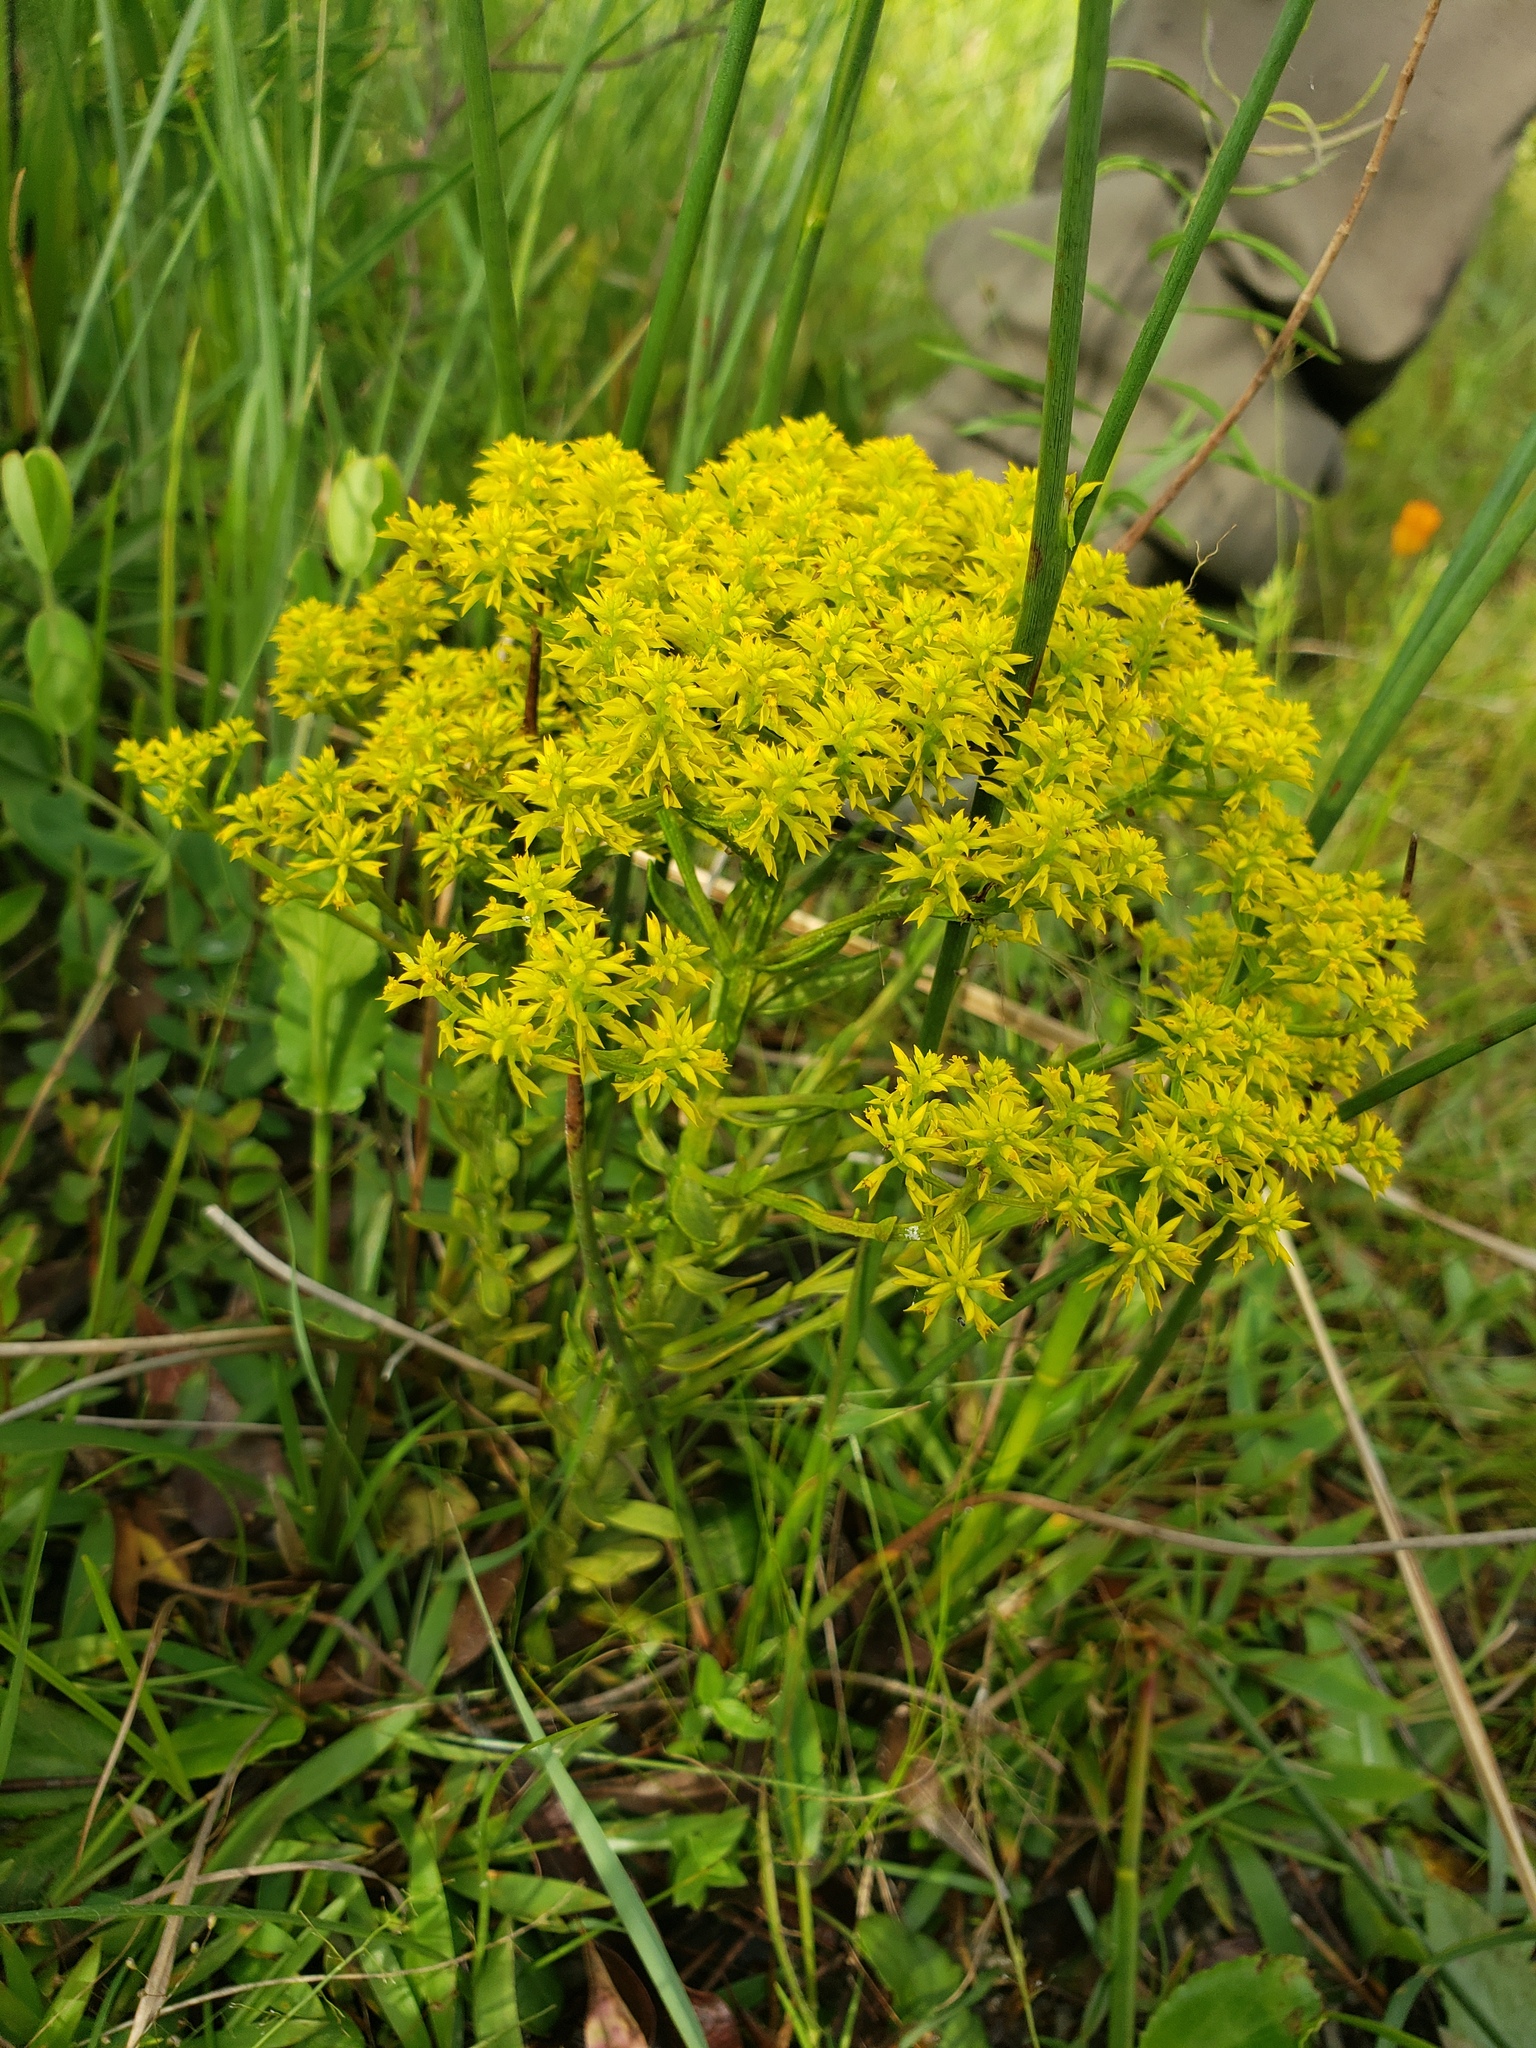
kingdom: Plantae
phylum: Tracheophyta
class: Magnoliopsida
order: Fabales
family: Polygalaceae
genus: Polygala
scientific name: Polygala ramosa
